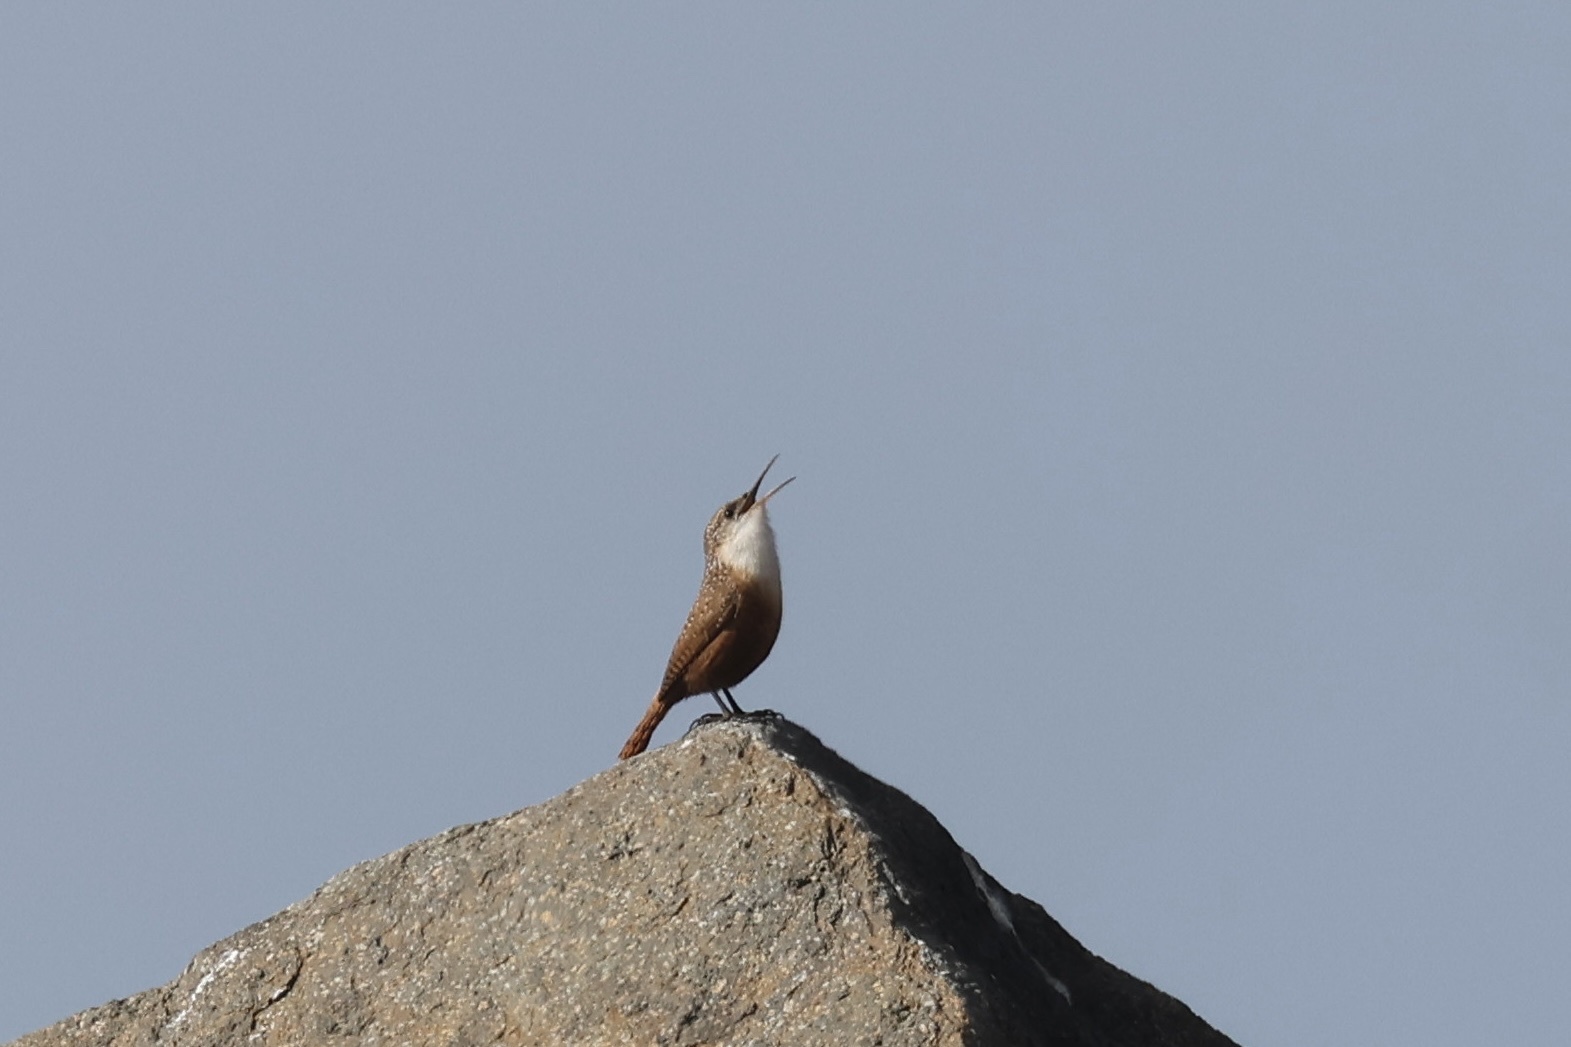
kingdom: Animalia
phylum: Chordata
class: Aves
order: Passeriformes
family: Troglodytidae
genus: Catherpes
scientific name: Catherpes mexicanus
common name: Canyon wren
